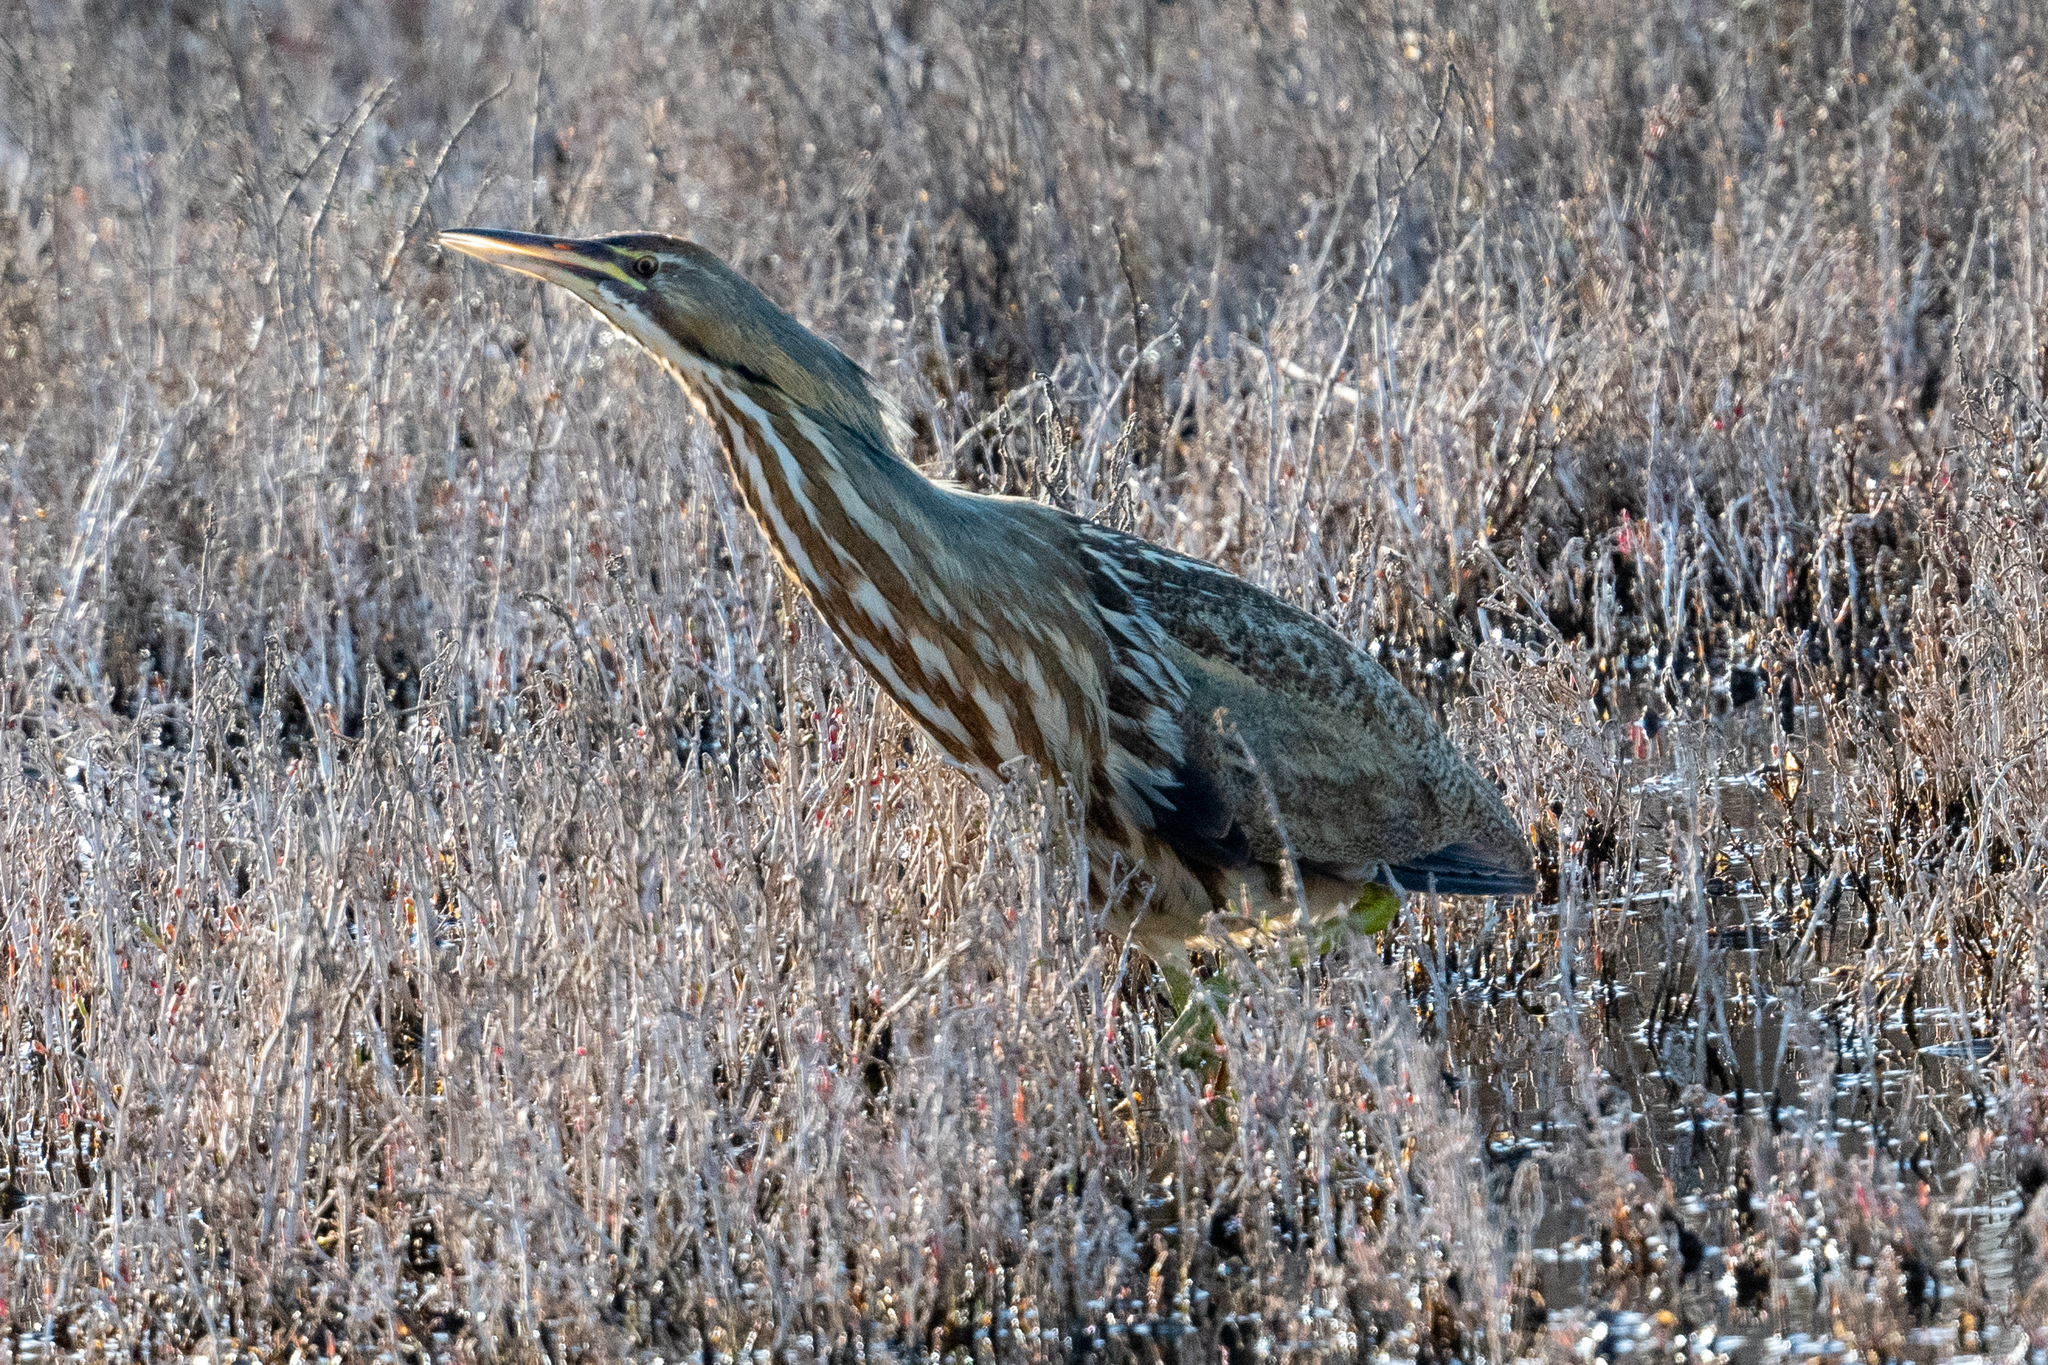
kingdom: Animalia
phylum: Chordata
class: Aves
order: Pelecaniformes
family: Ardeidae
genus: Botaurus
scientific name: Botaurus lentiginosus
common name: American bittern
